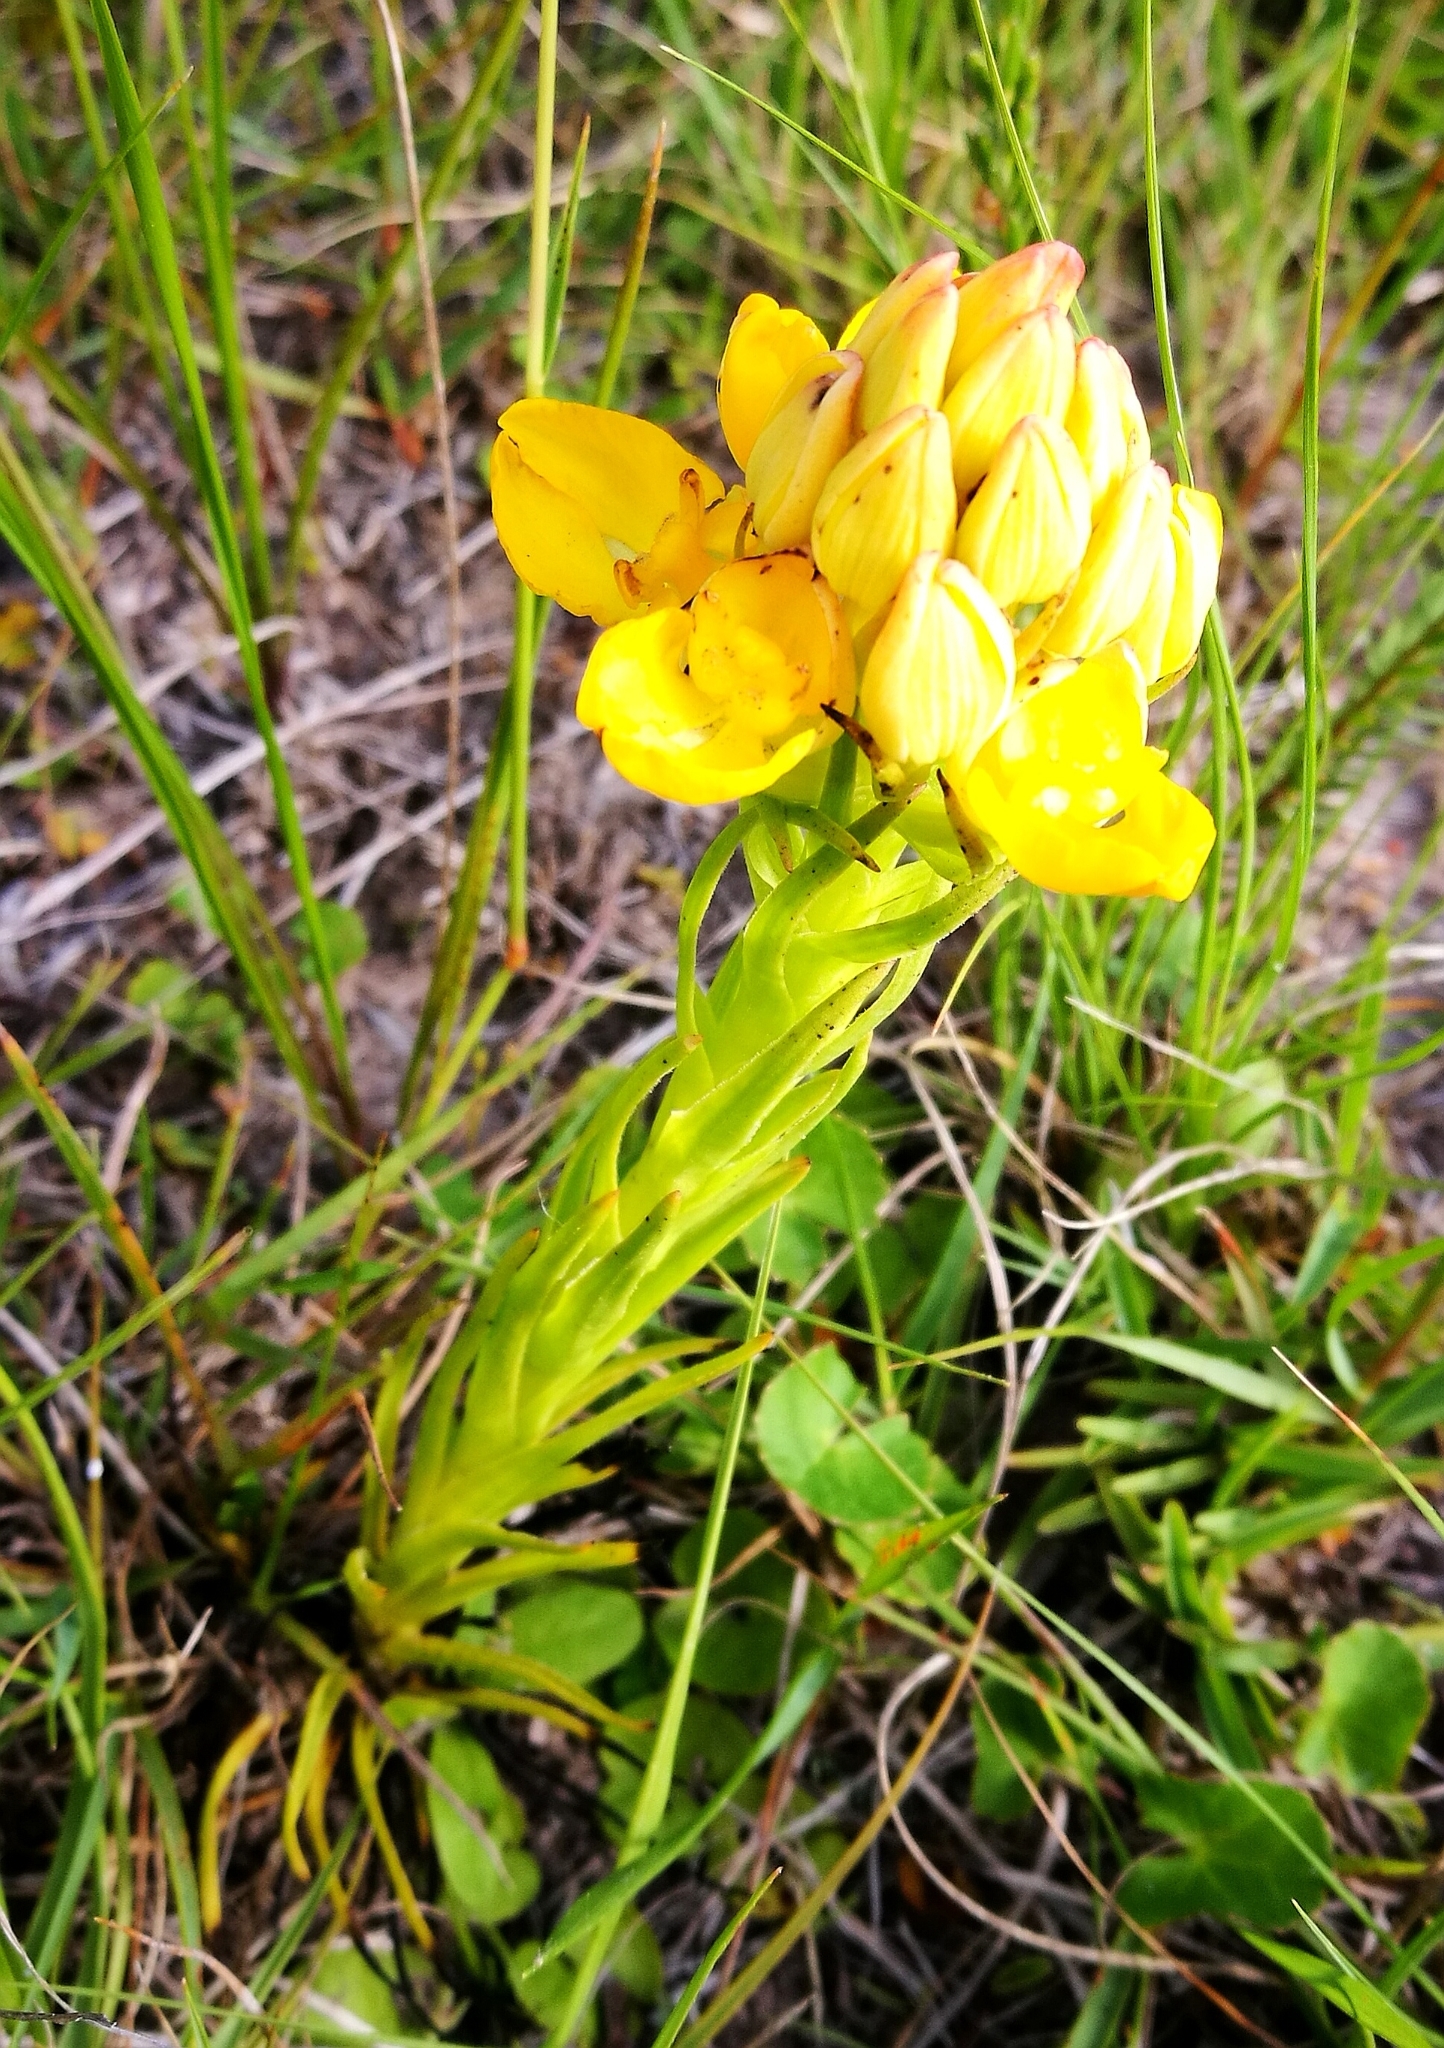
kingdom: Plantae
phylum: Tracheophyta
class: Liliopsida
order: Asparagales
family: Orchidaceae
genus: Ceratandra
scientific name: Ceratandra grandiflora
